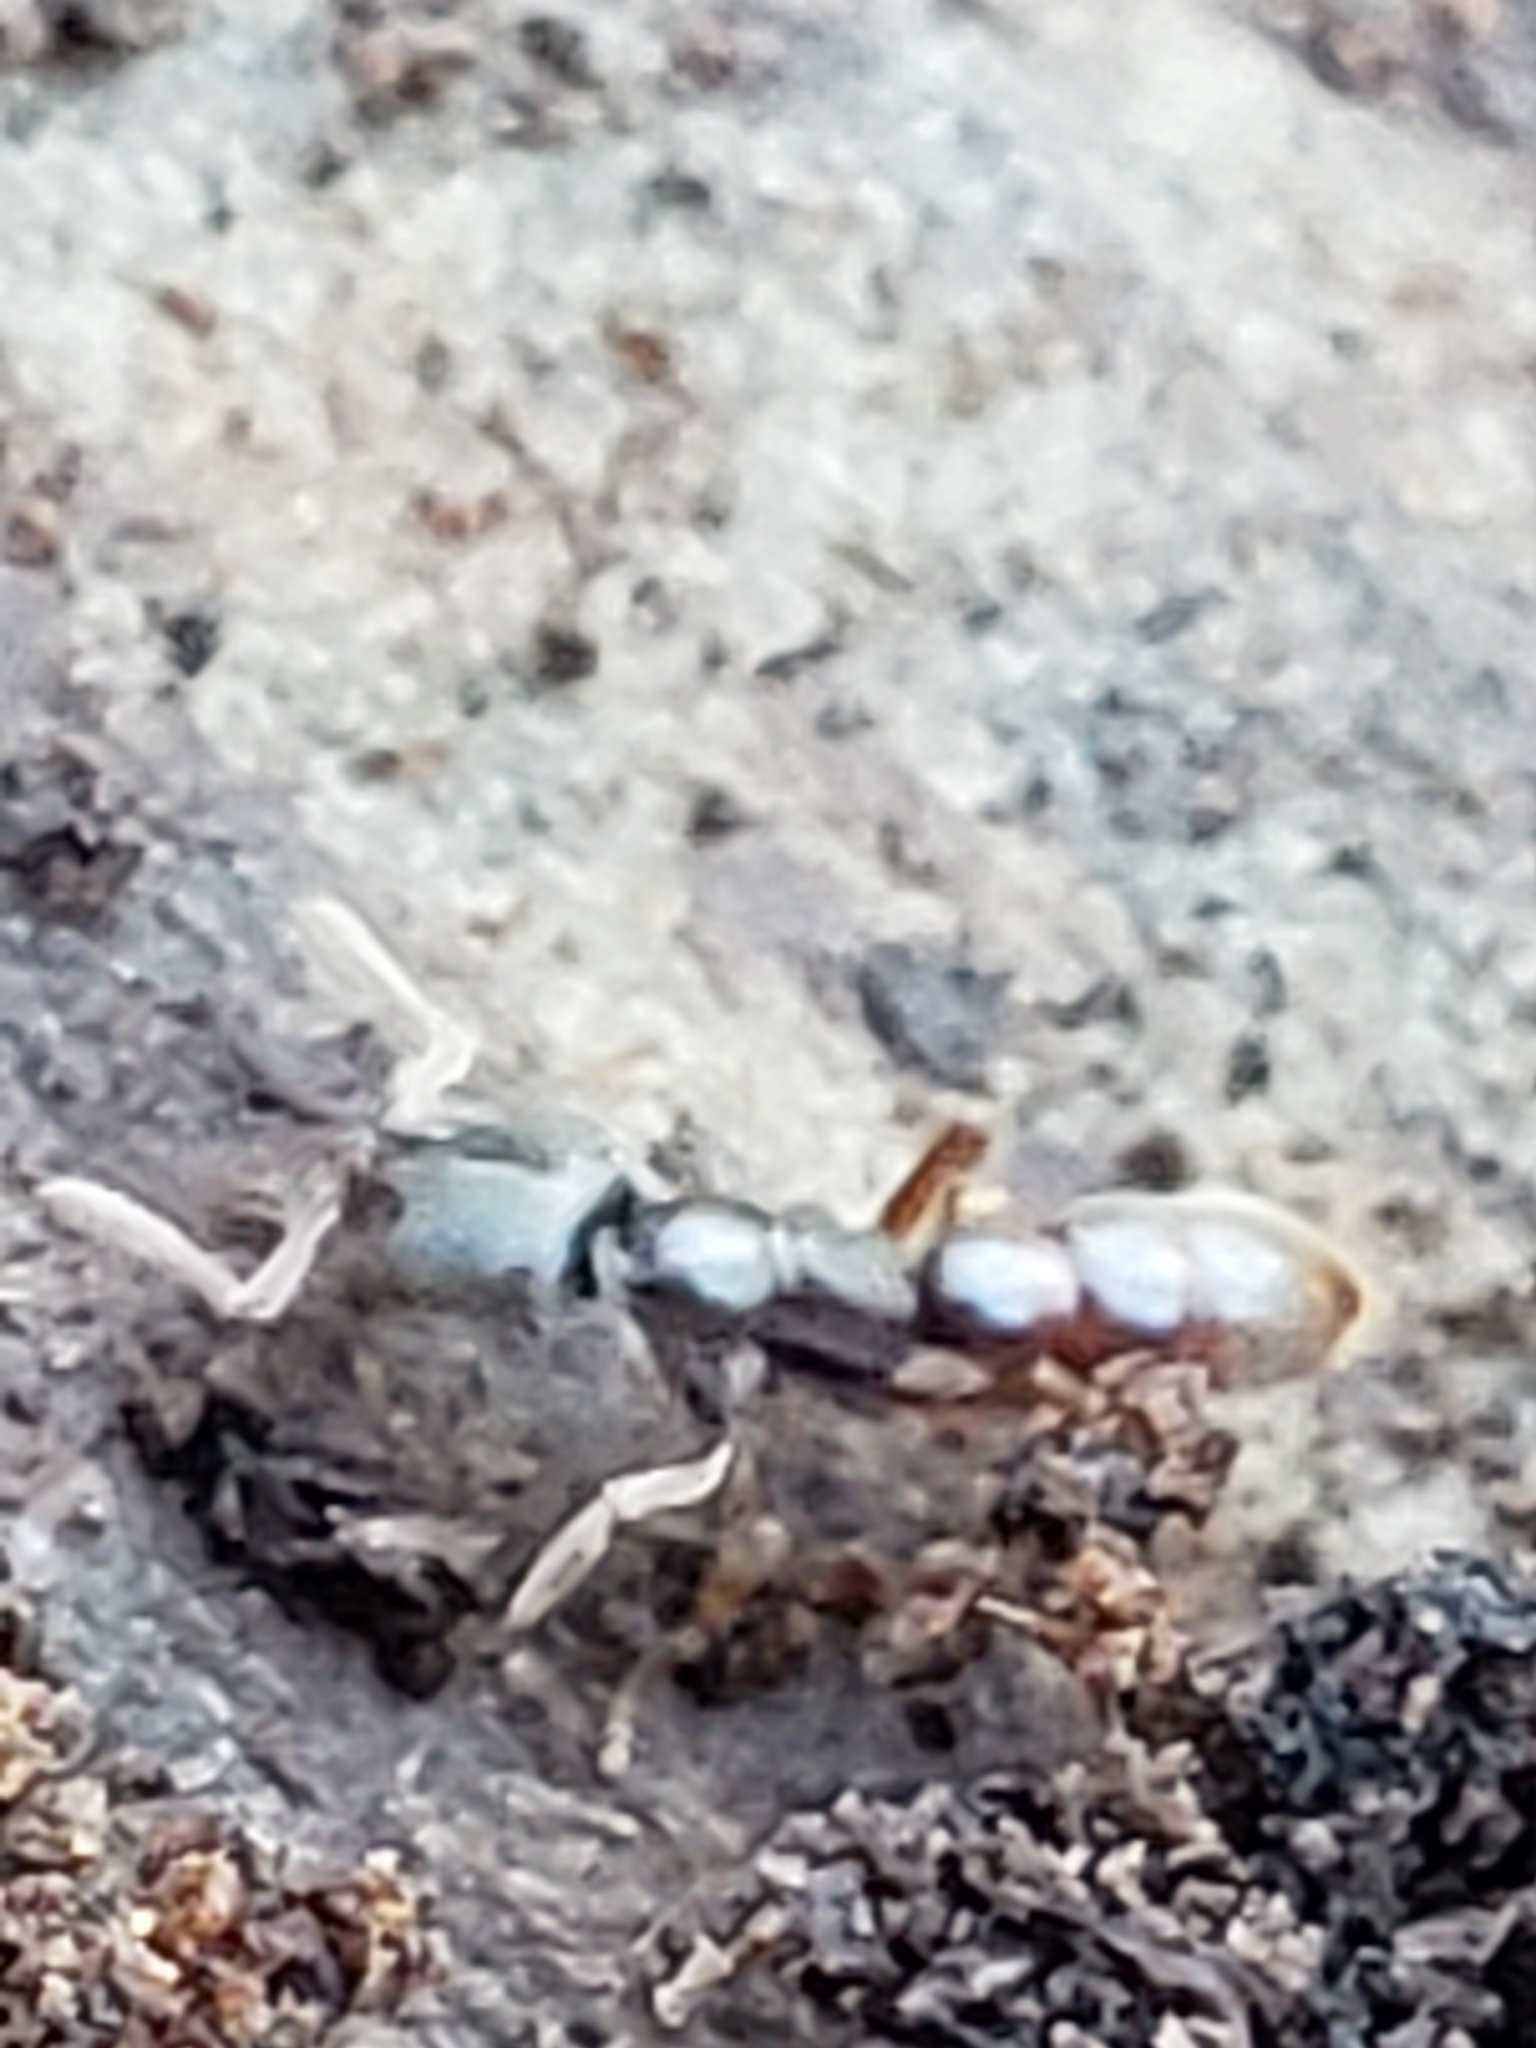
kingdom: Animalia
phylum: Arthropoda
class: Insecta
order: Hymenoptera
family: Formicidae
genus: Stigmatomma
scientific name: Stigmatomma pallipes
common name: Vampire ant
